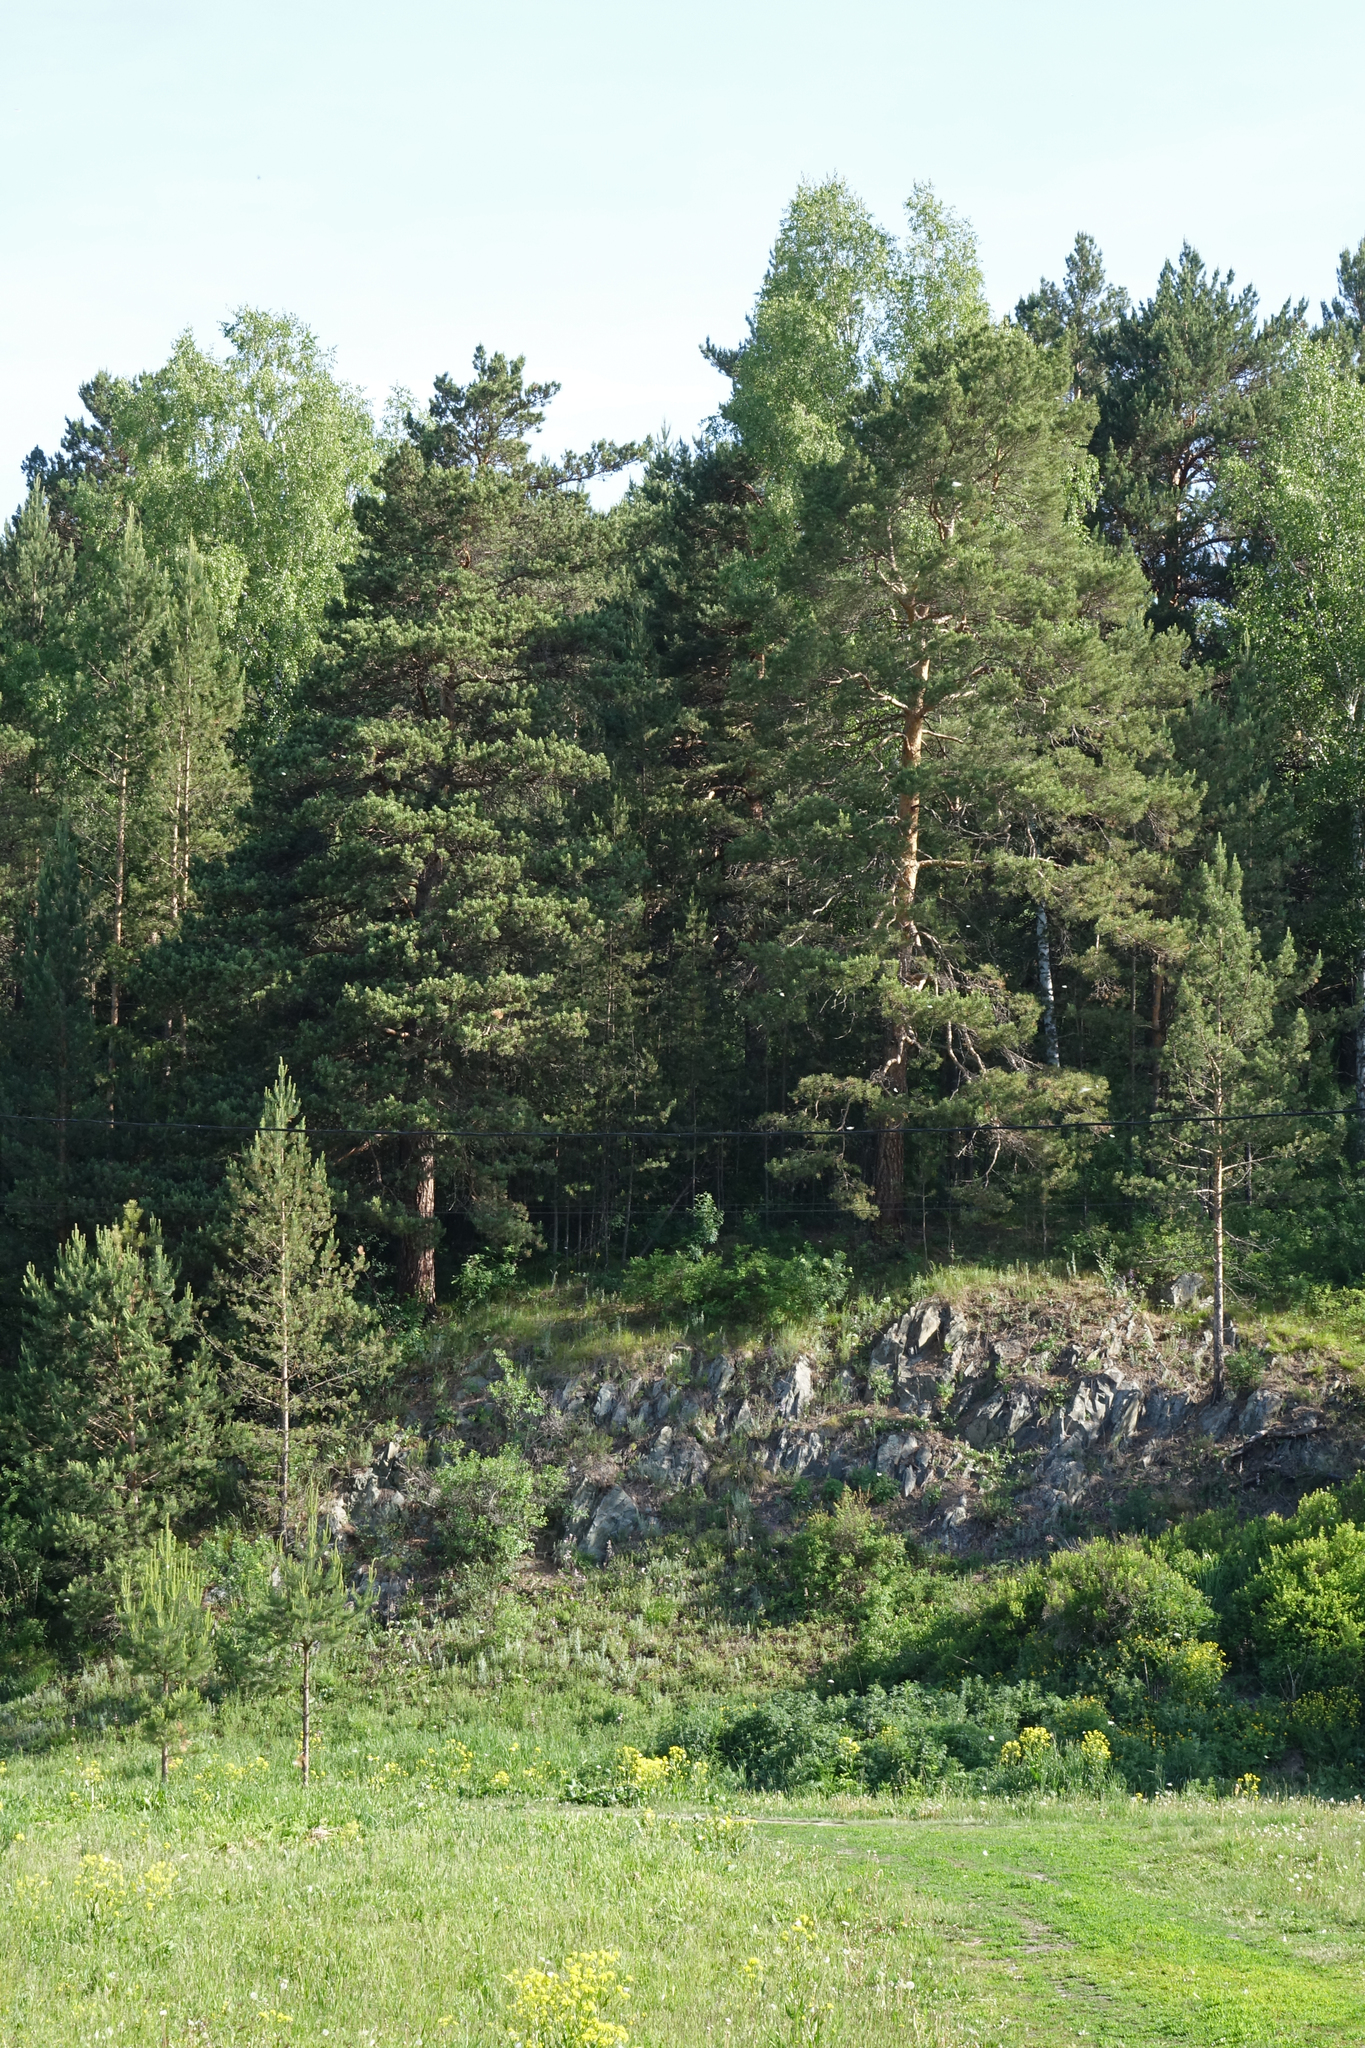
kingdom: Plantae
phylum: Tracheophyta
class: Pinopsida
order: Pinales
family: Pinaceae
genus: Pinus
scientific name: Pinus sylvestris
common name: Scots pine
